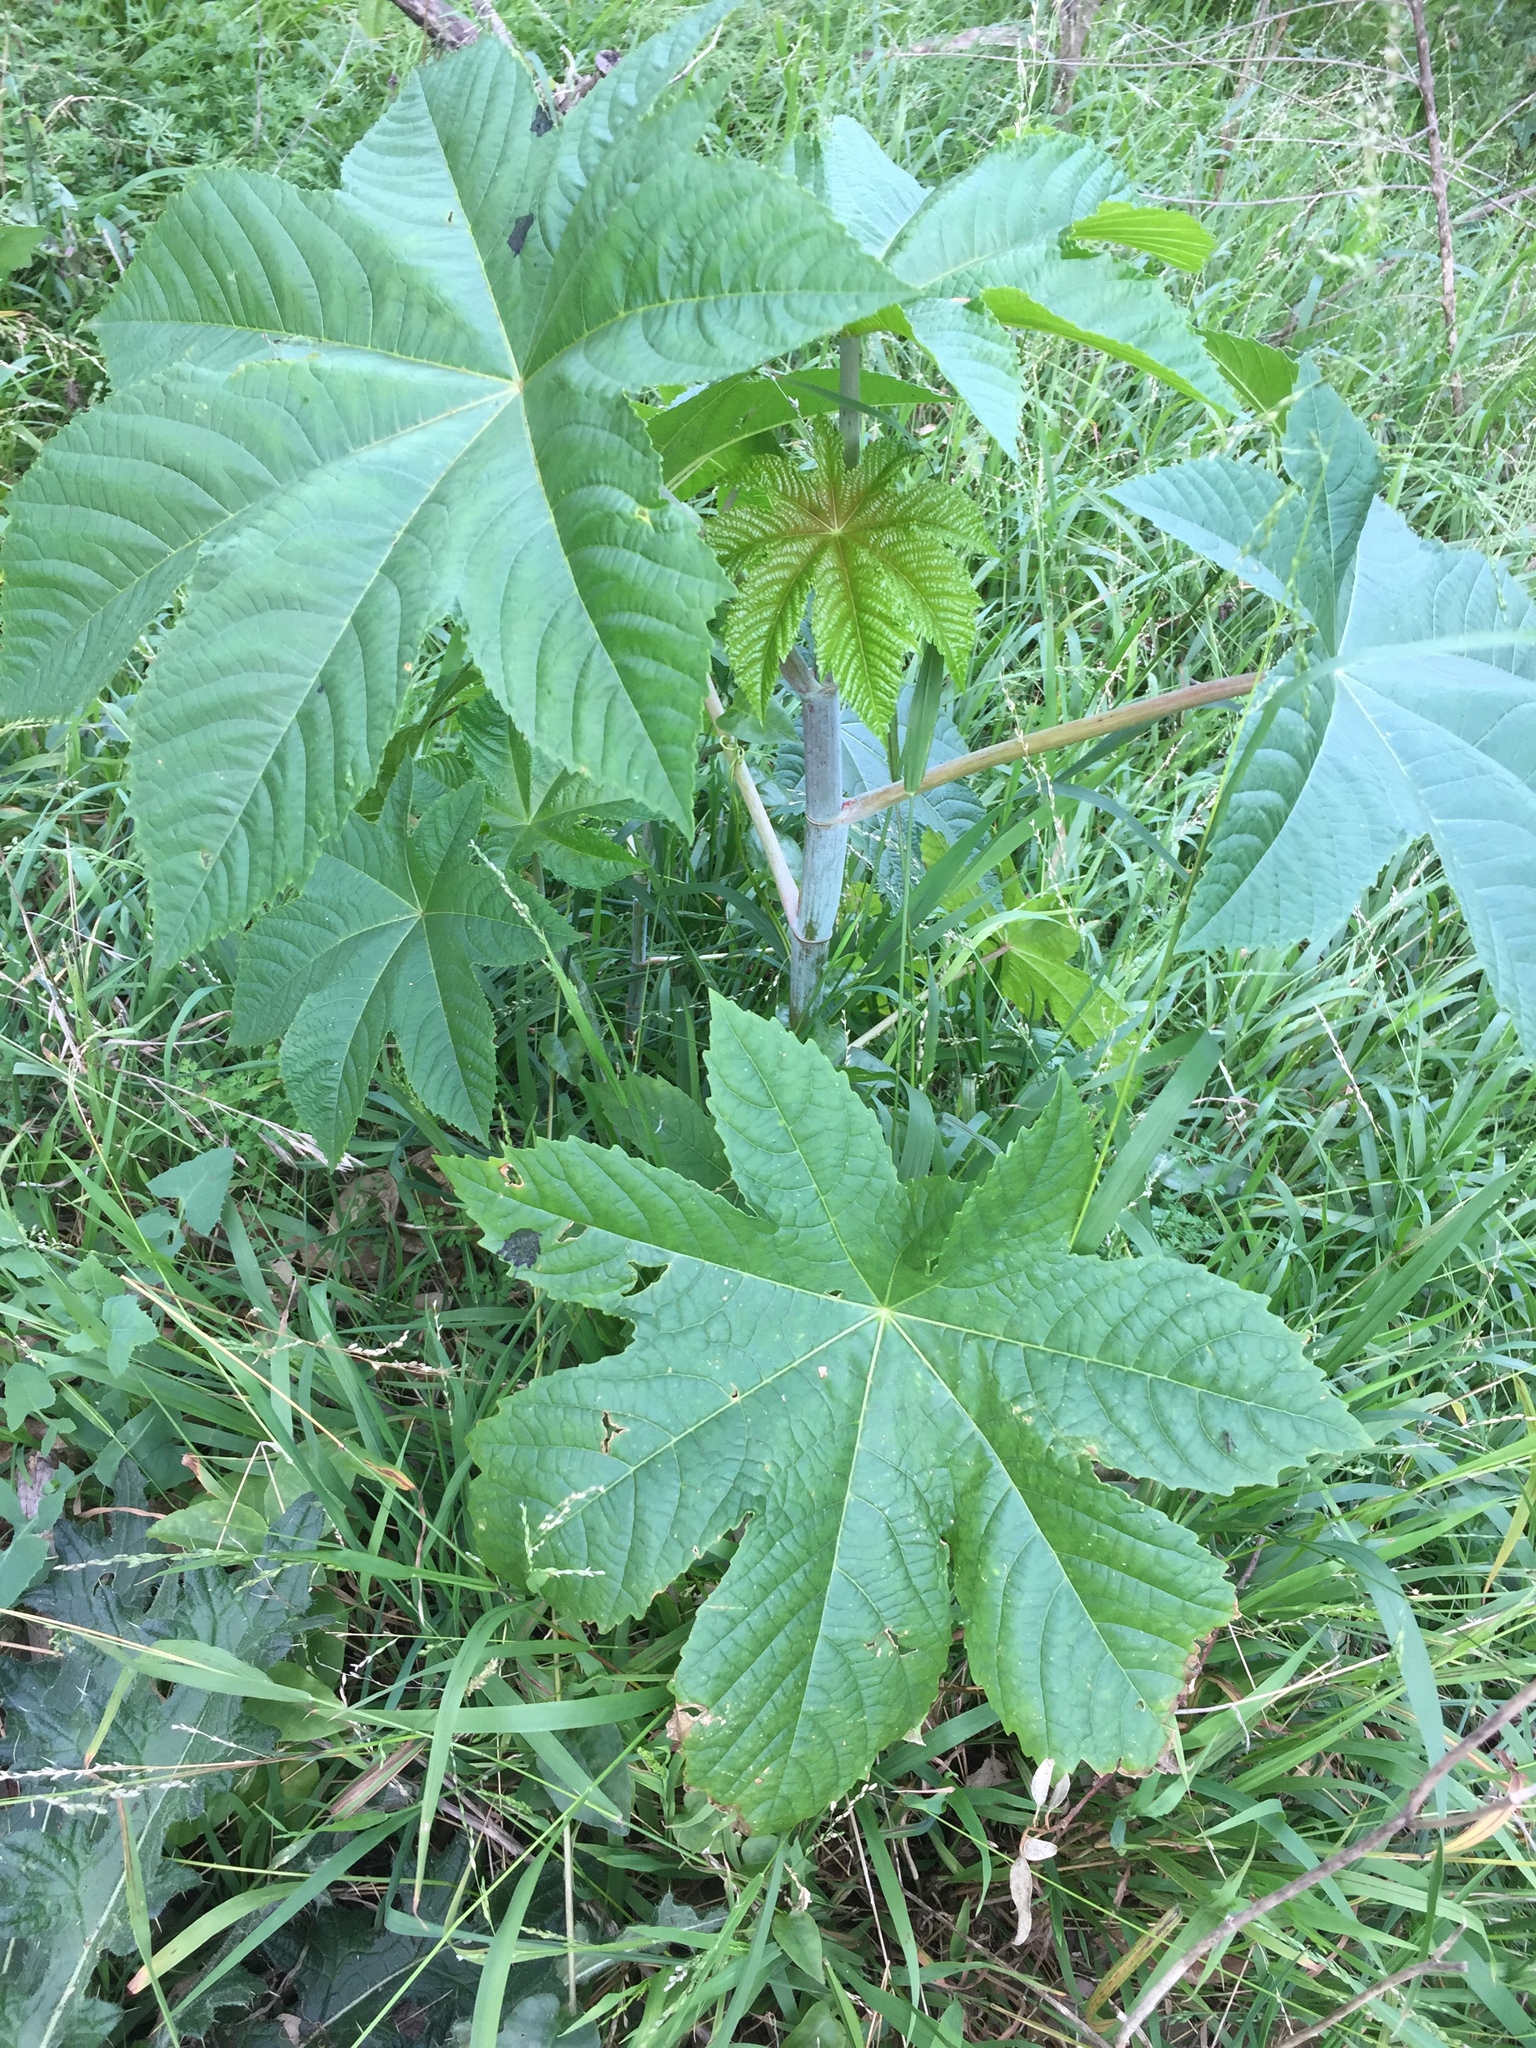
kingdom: Plantae
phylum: Tracheophyta
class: Magnoliopsida
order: Malpighiales
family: Euphorbiaceae
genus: Ricinus
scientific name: Ricinus communis
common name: Castor-oil-plant
